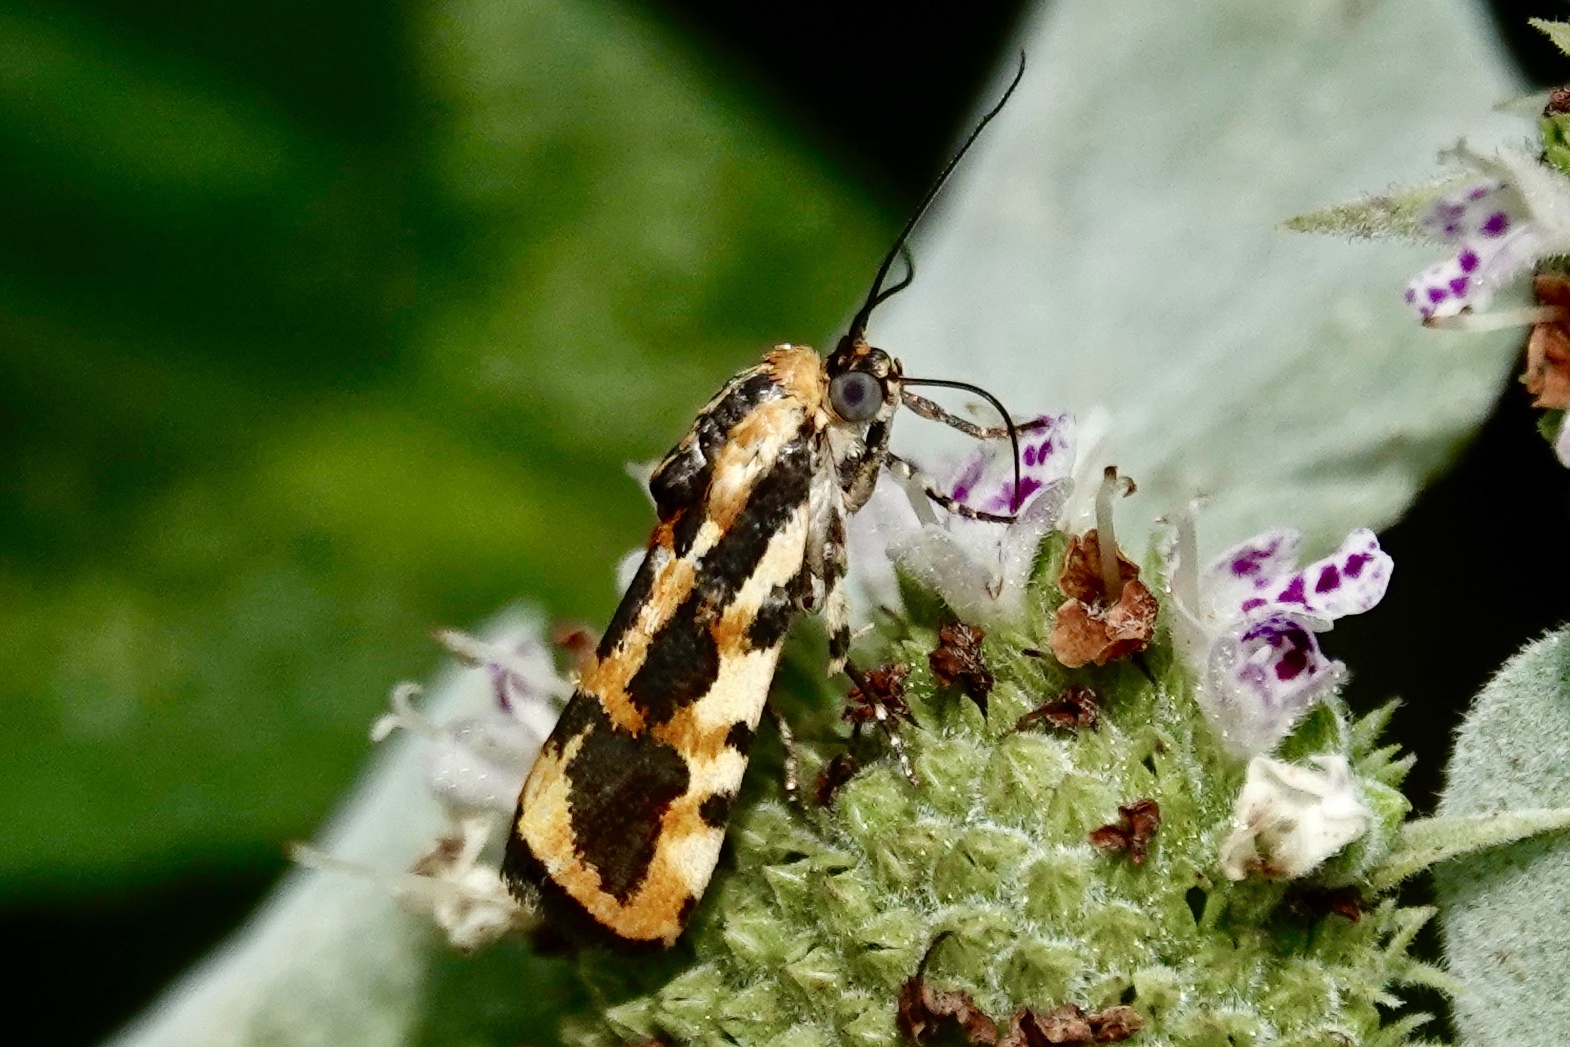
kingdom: Animalia
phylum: Arthropoda
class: Insecta
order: Lepidoptera
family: Noctuidae
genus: Acontia
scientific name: Acontia leo
